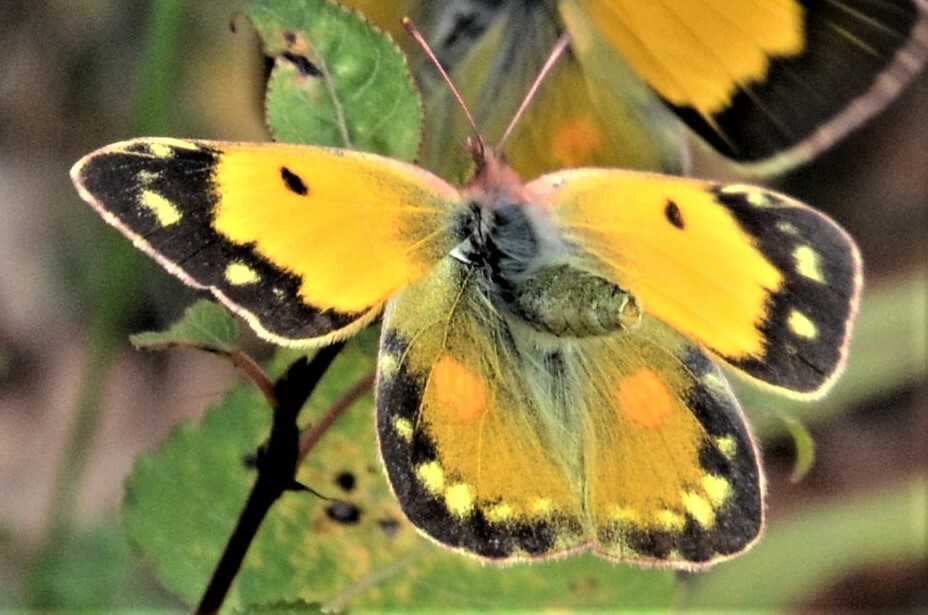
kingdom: Animalia
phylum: Arthropoda
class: Insecta
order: Lepidoptera
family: Pieridae
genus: Colias
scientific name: Colias croceus
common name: Clouded yellow
